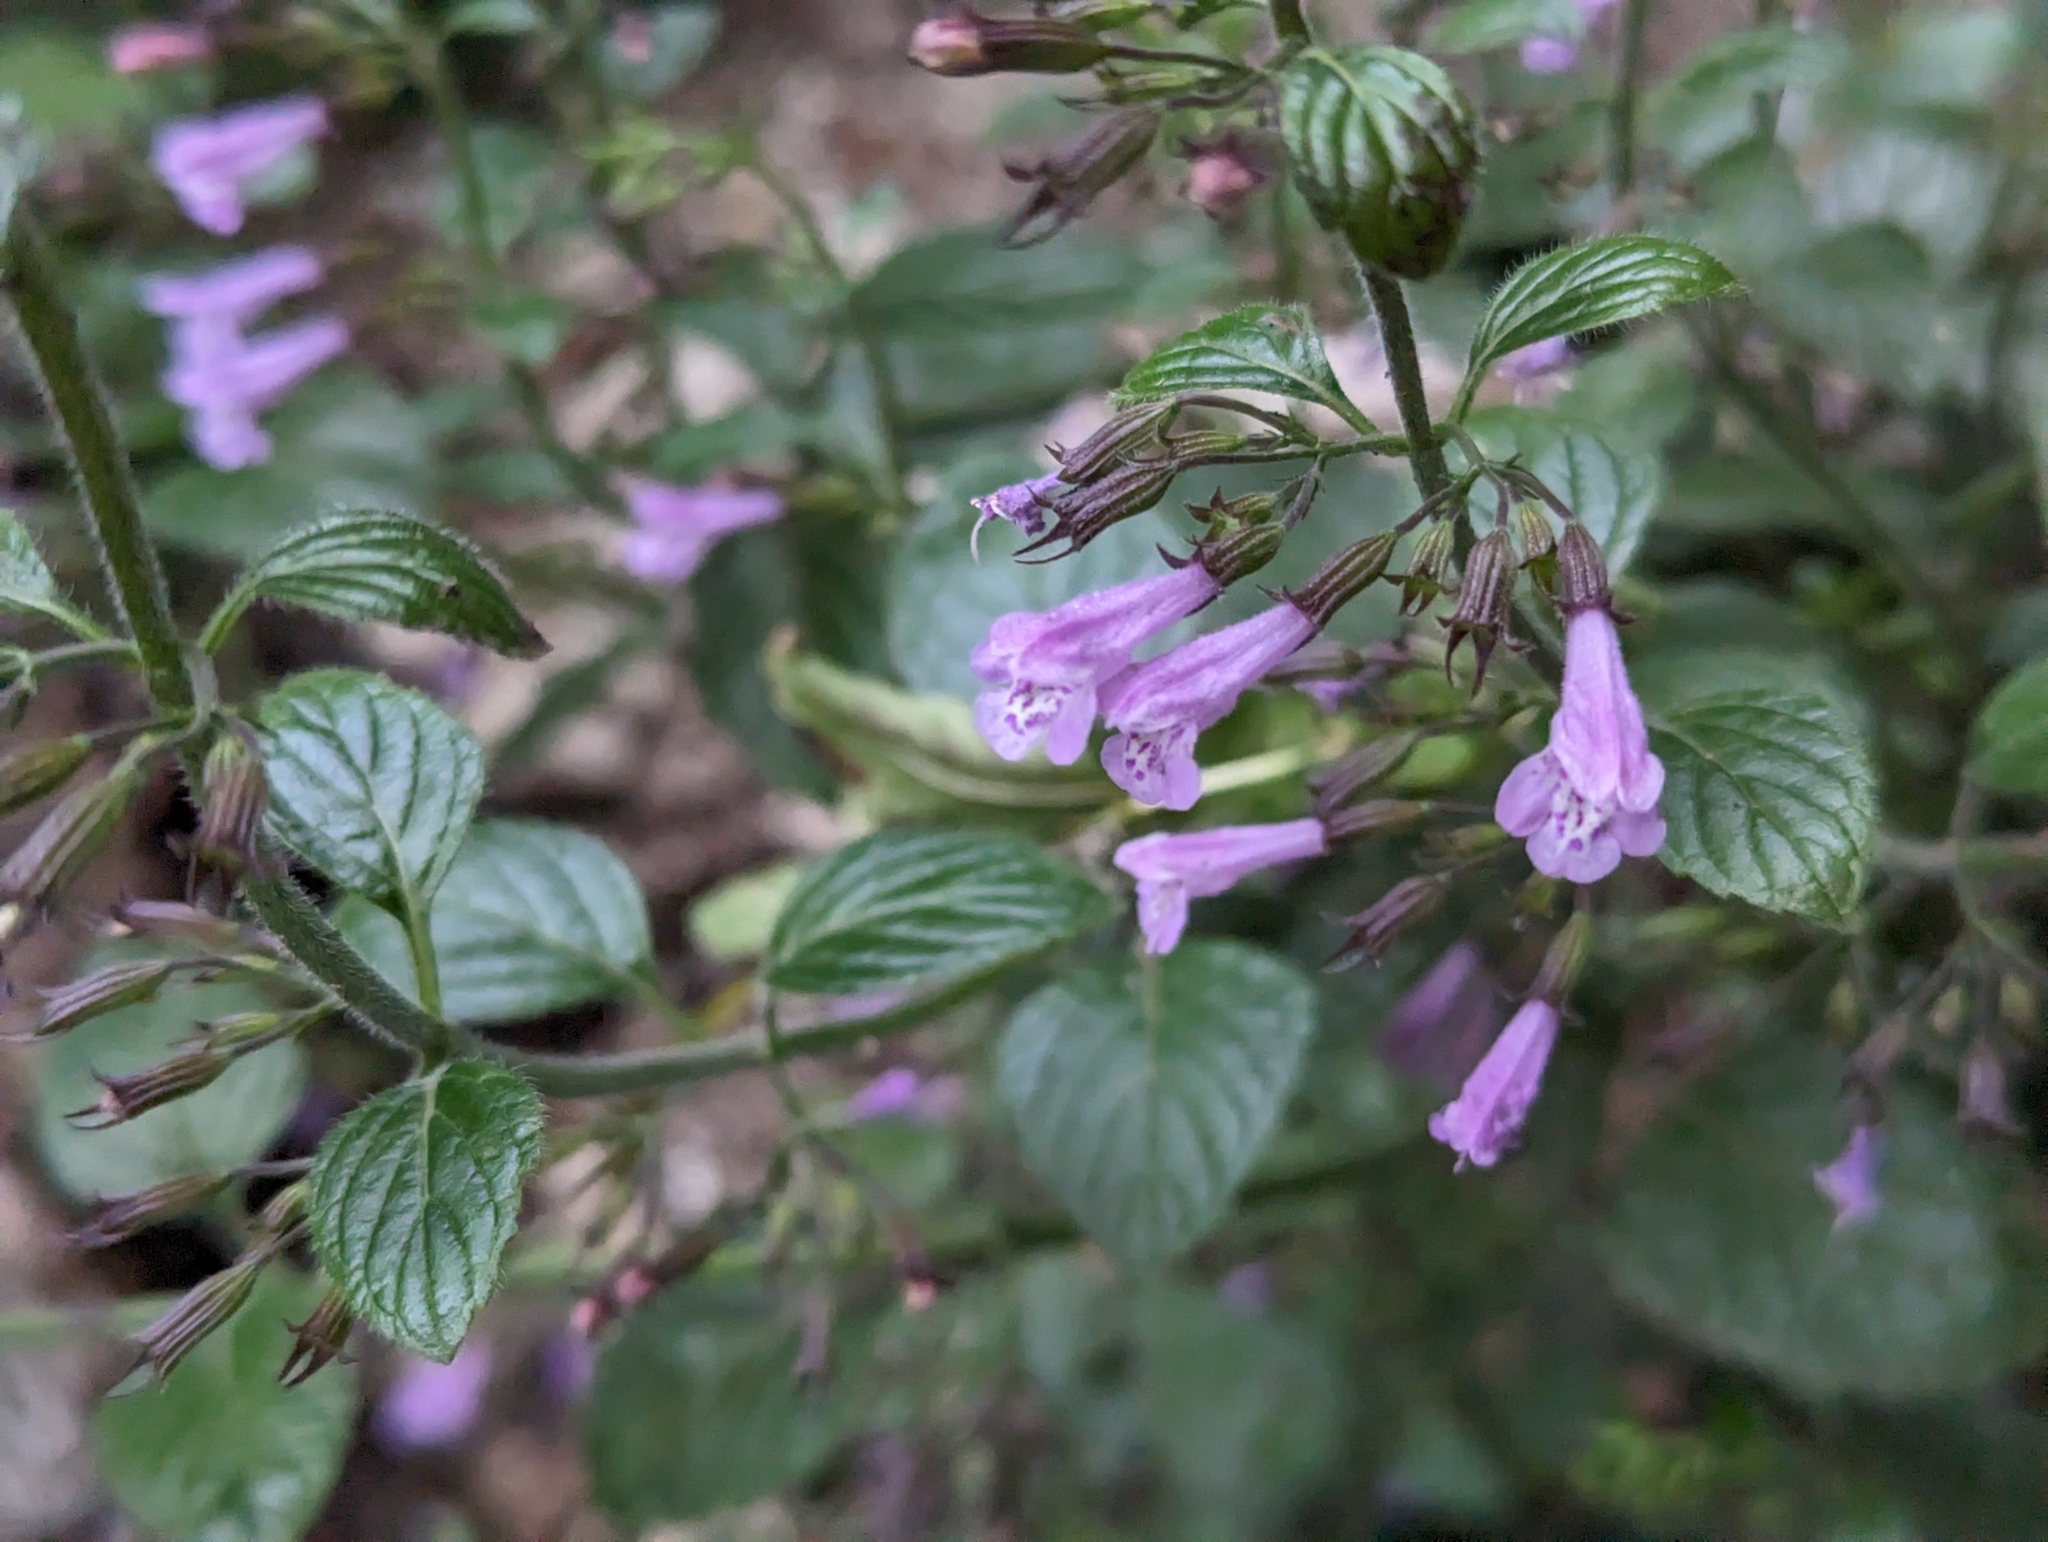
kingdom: Plantae
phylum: Tracheophyta
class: Magnoliopsida
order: Lamiales
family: Lamiaceae
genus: Clinopodium
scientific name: Clinopodium menthifolium
